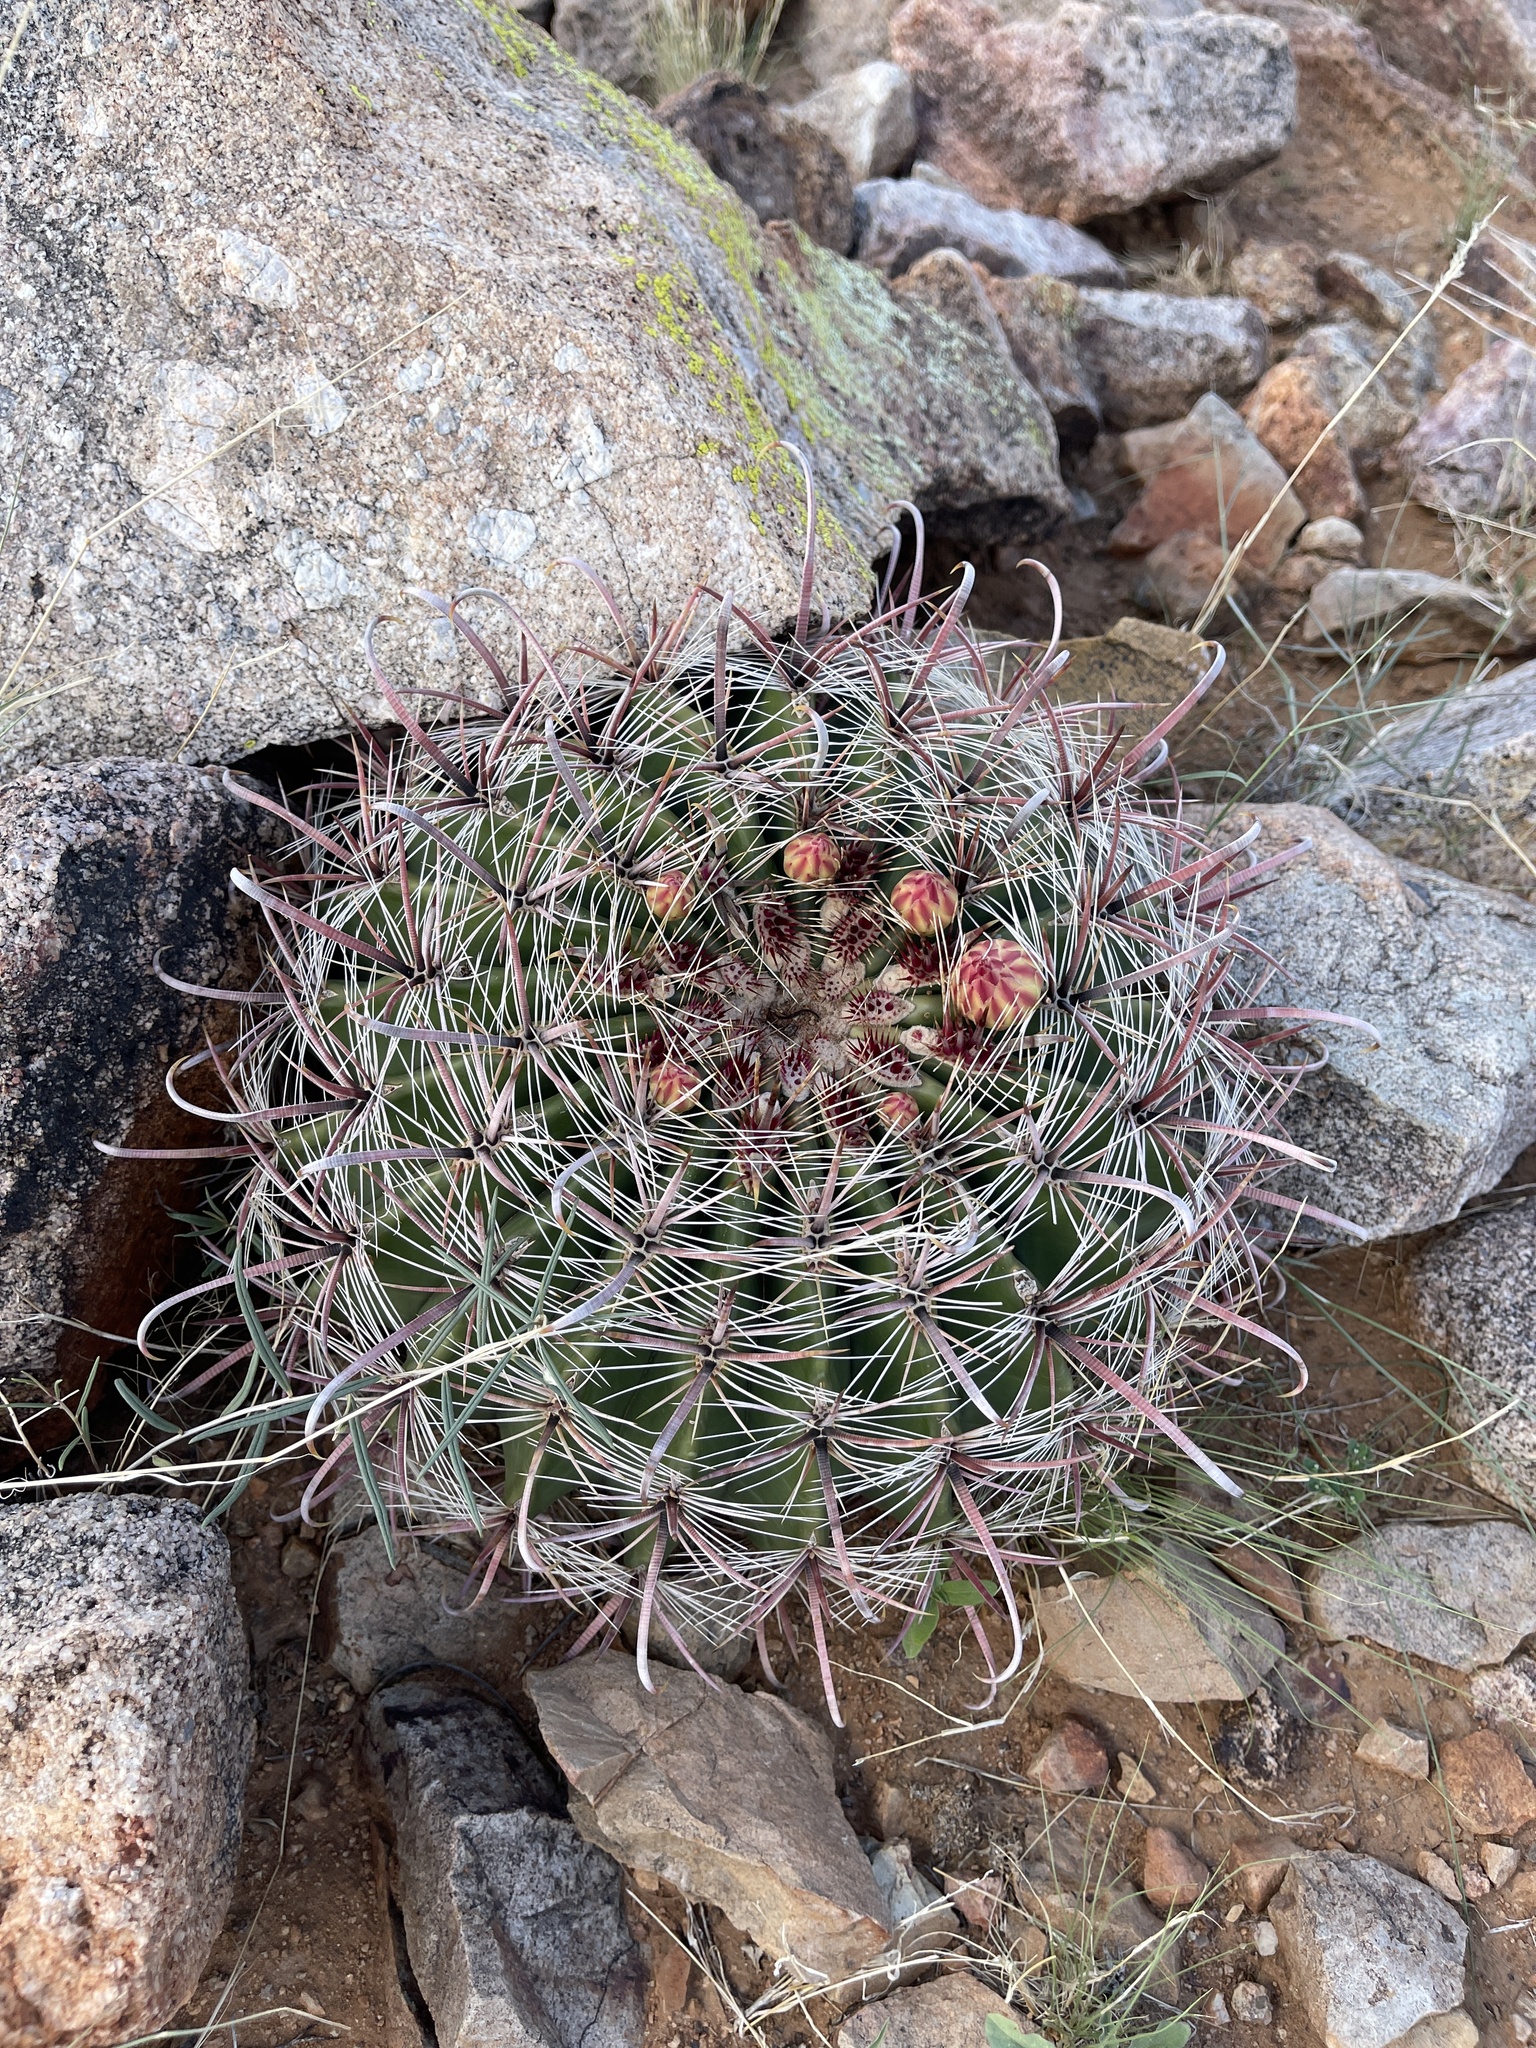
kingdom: Plantae
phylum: Tracheophyta
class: Magnoliopsida
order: Caryophyllales
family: Cactaceae
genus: Ferocactus
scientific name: Ferocactus wislizeni
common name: Candy barrel cactus
